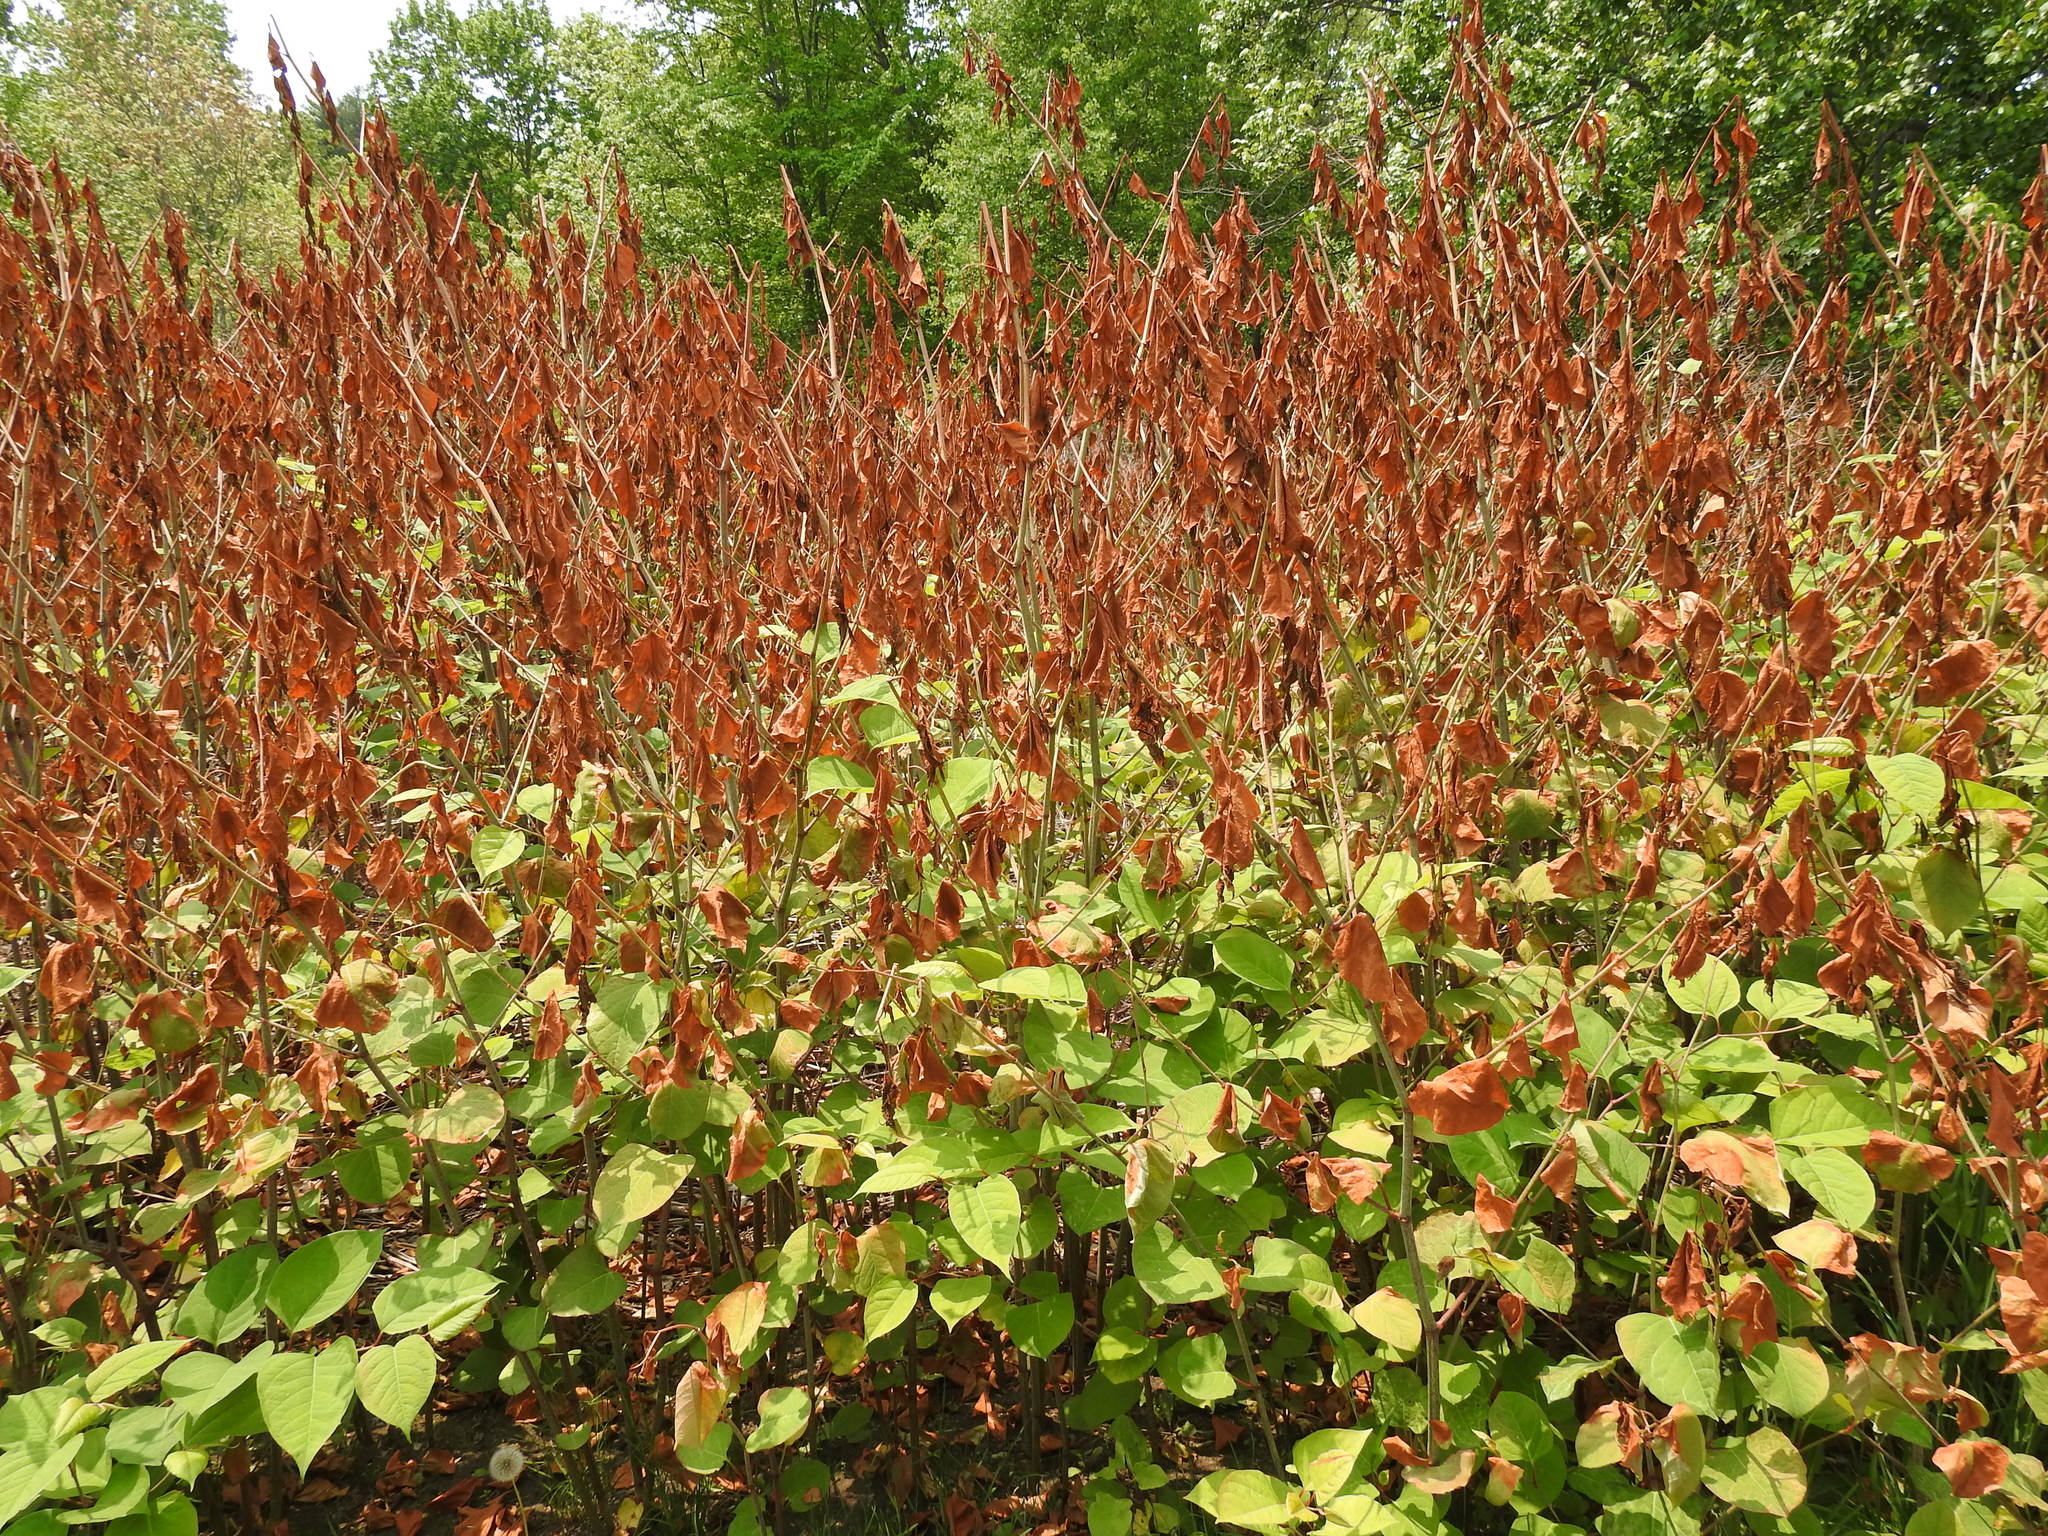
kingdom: Plantae
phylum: Tracheophyta
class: Magnoliopsida
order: Caryophyllales
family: Polygonaceae
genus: Reynoutria
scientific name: Reynoutria
